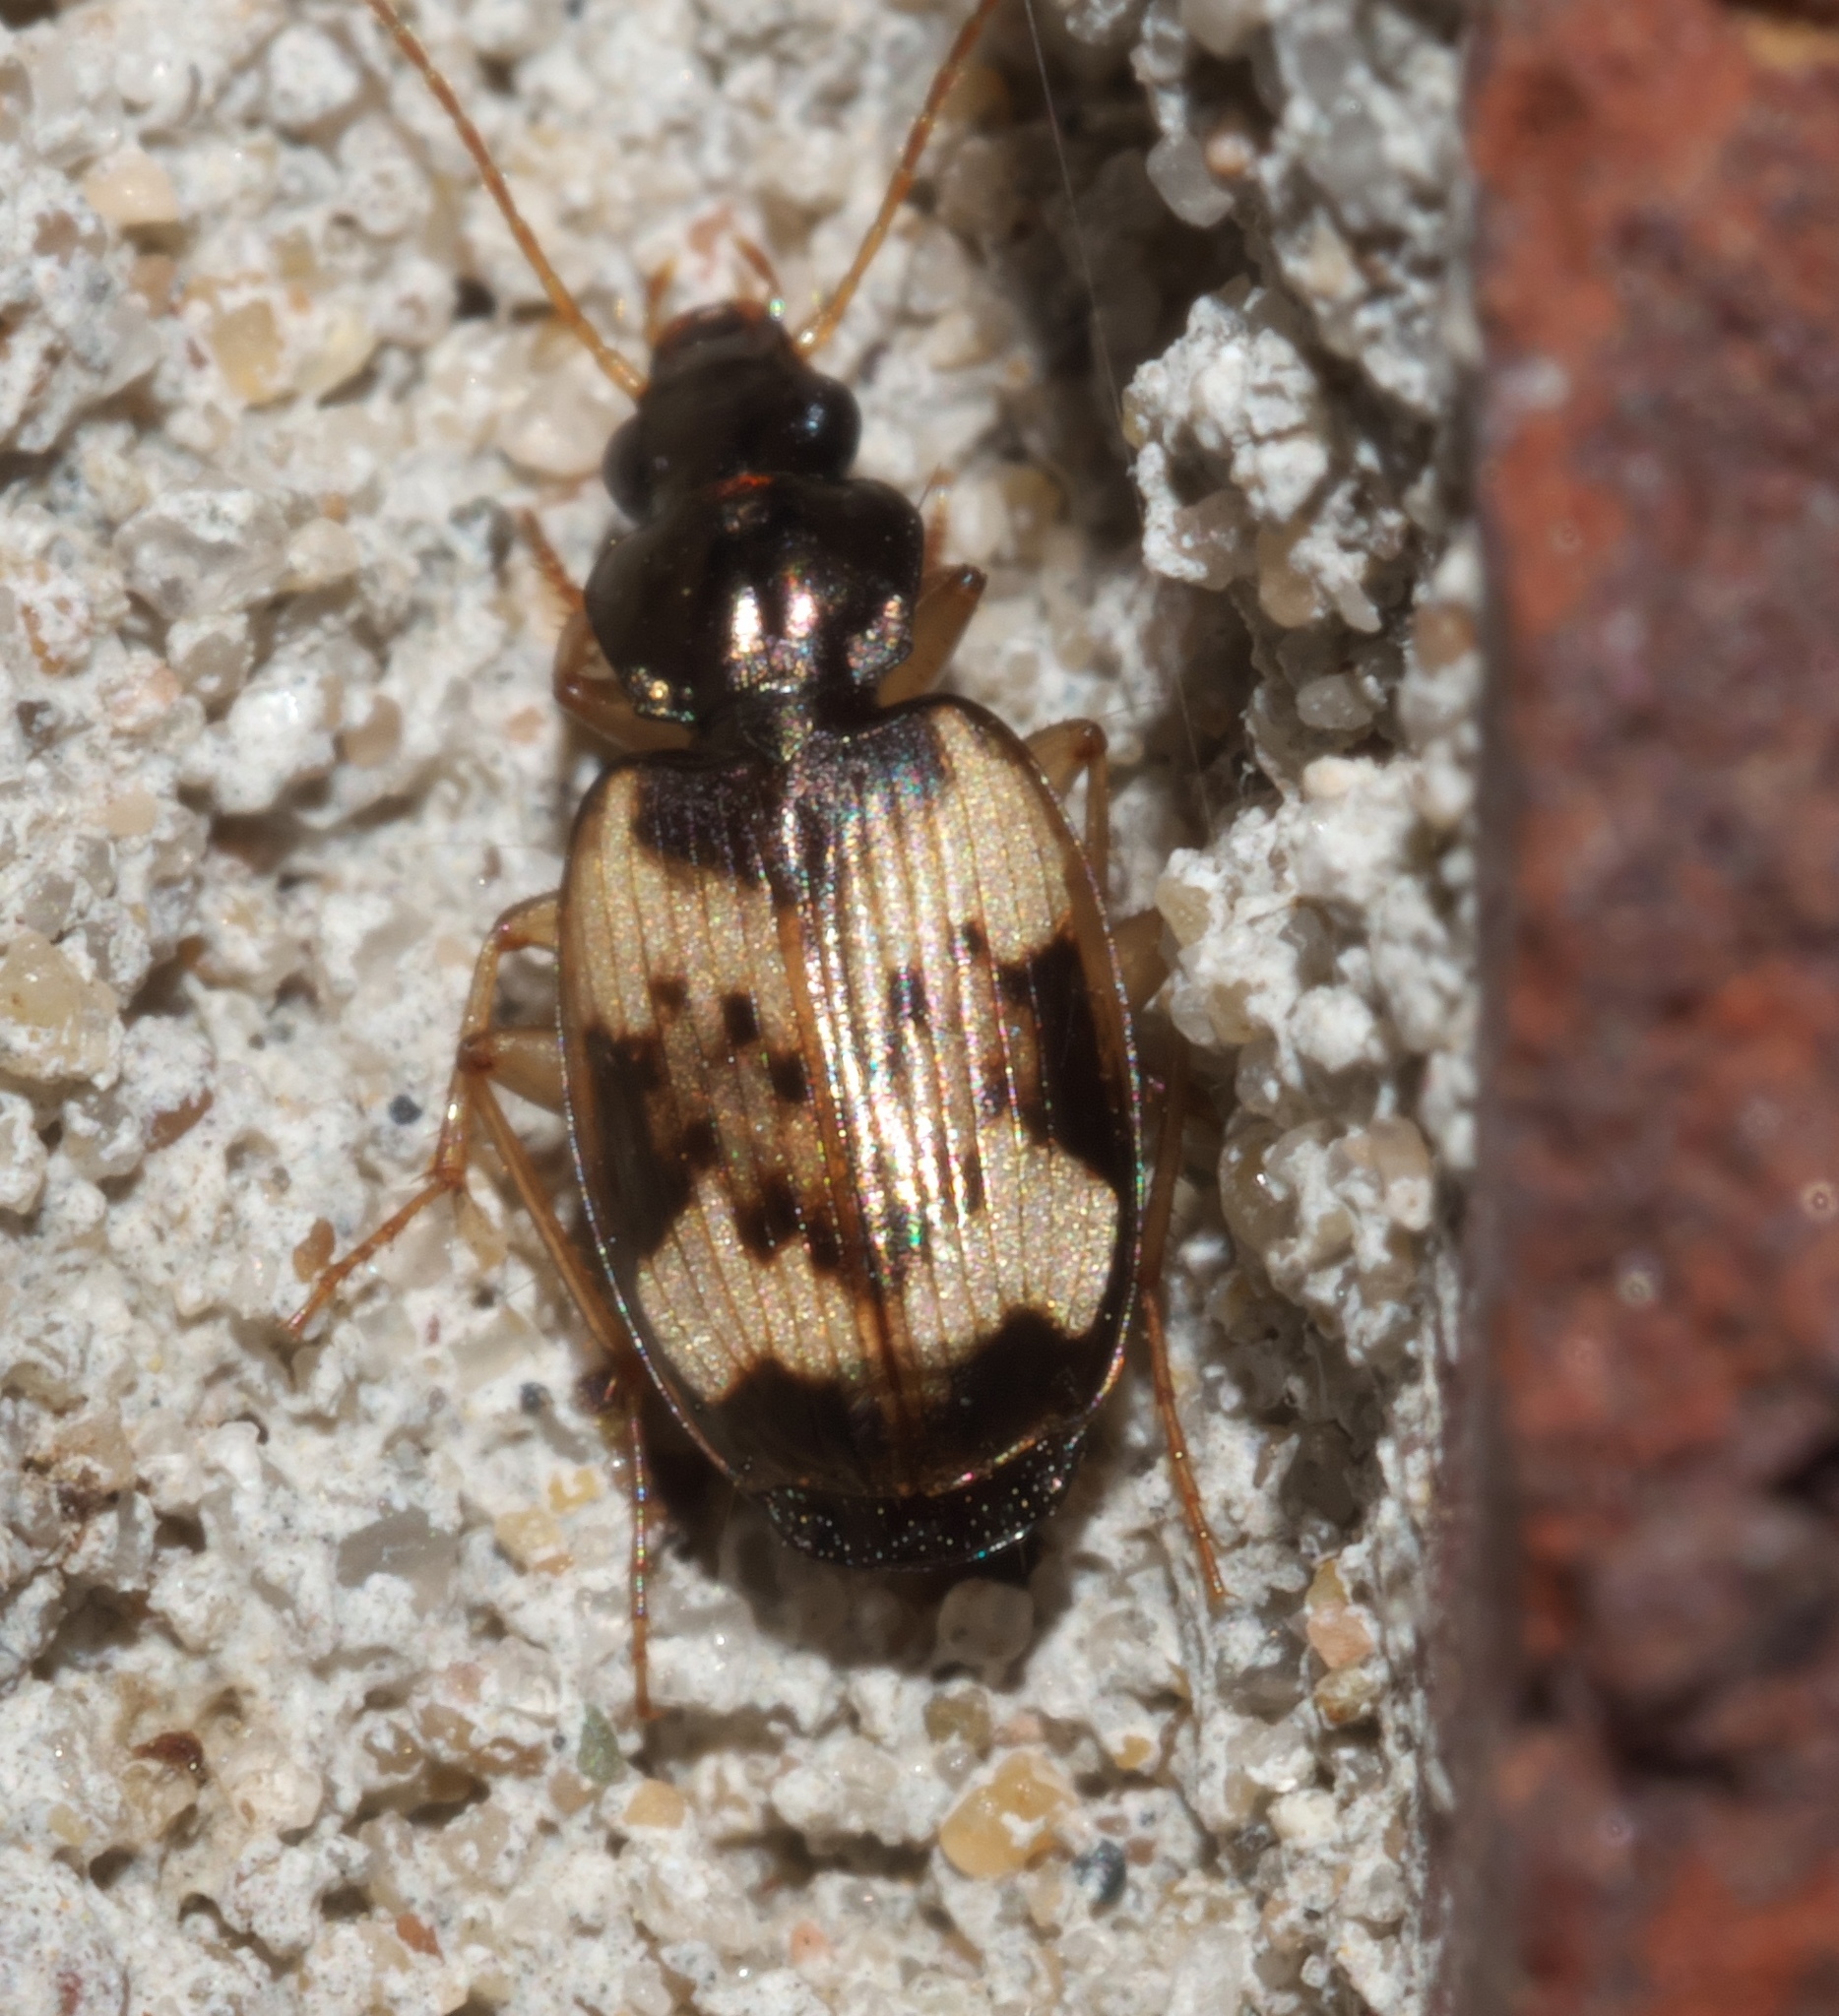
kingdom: Animalia
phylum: Arthropoda
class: Insecta
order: Coleoptera
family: Carabidae
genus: Tetragonoderus
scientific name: Tetragonoderus fasciatus
